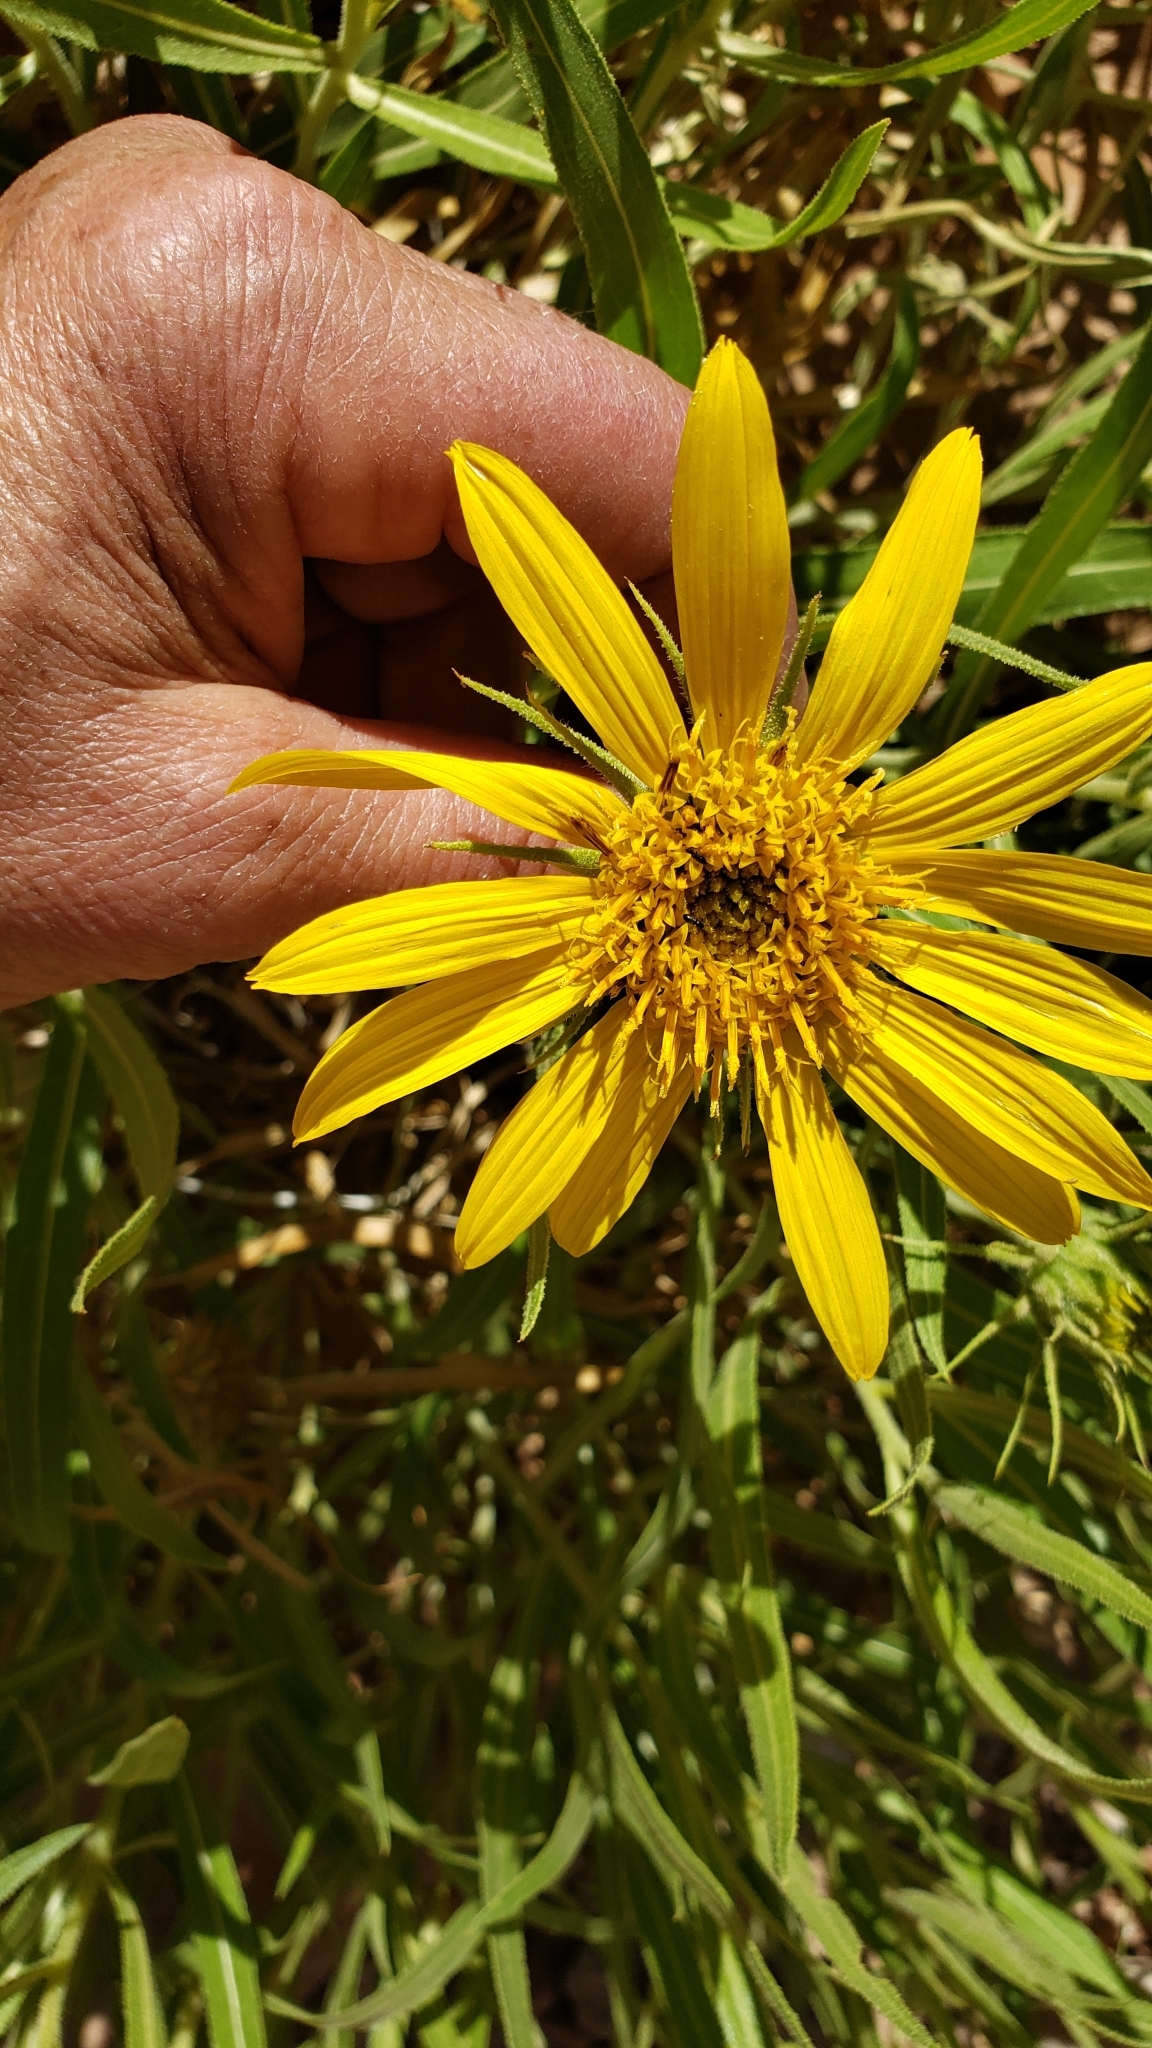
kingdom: Plantae
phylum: Tracheophyta
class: Magnoliopsida
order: Asterales
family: Asteraceae
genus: Scabrethia
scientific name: Scabrethia scabra
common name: Rough mules's-ears
